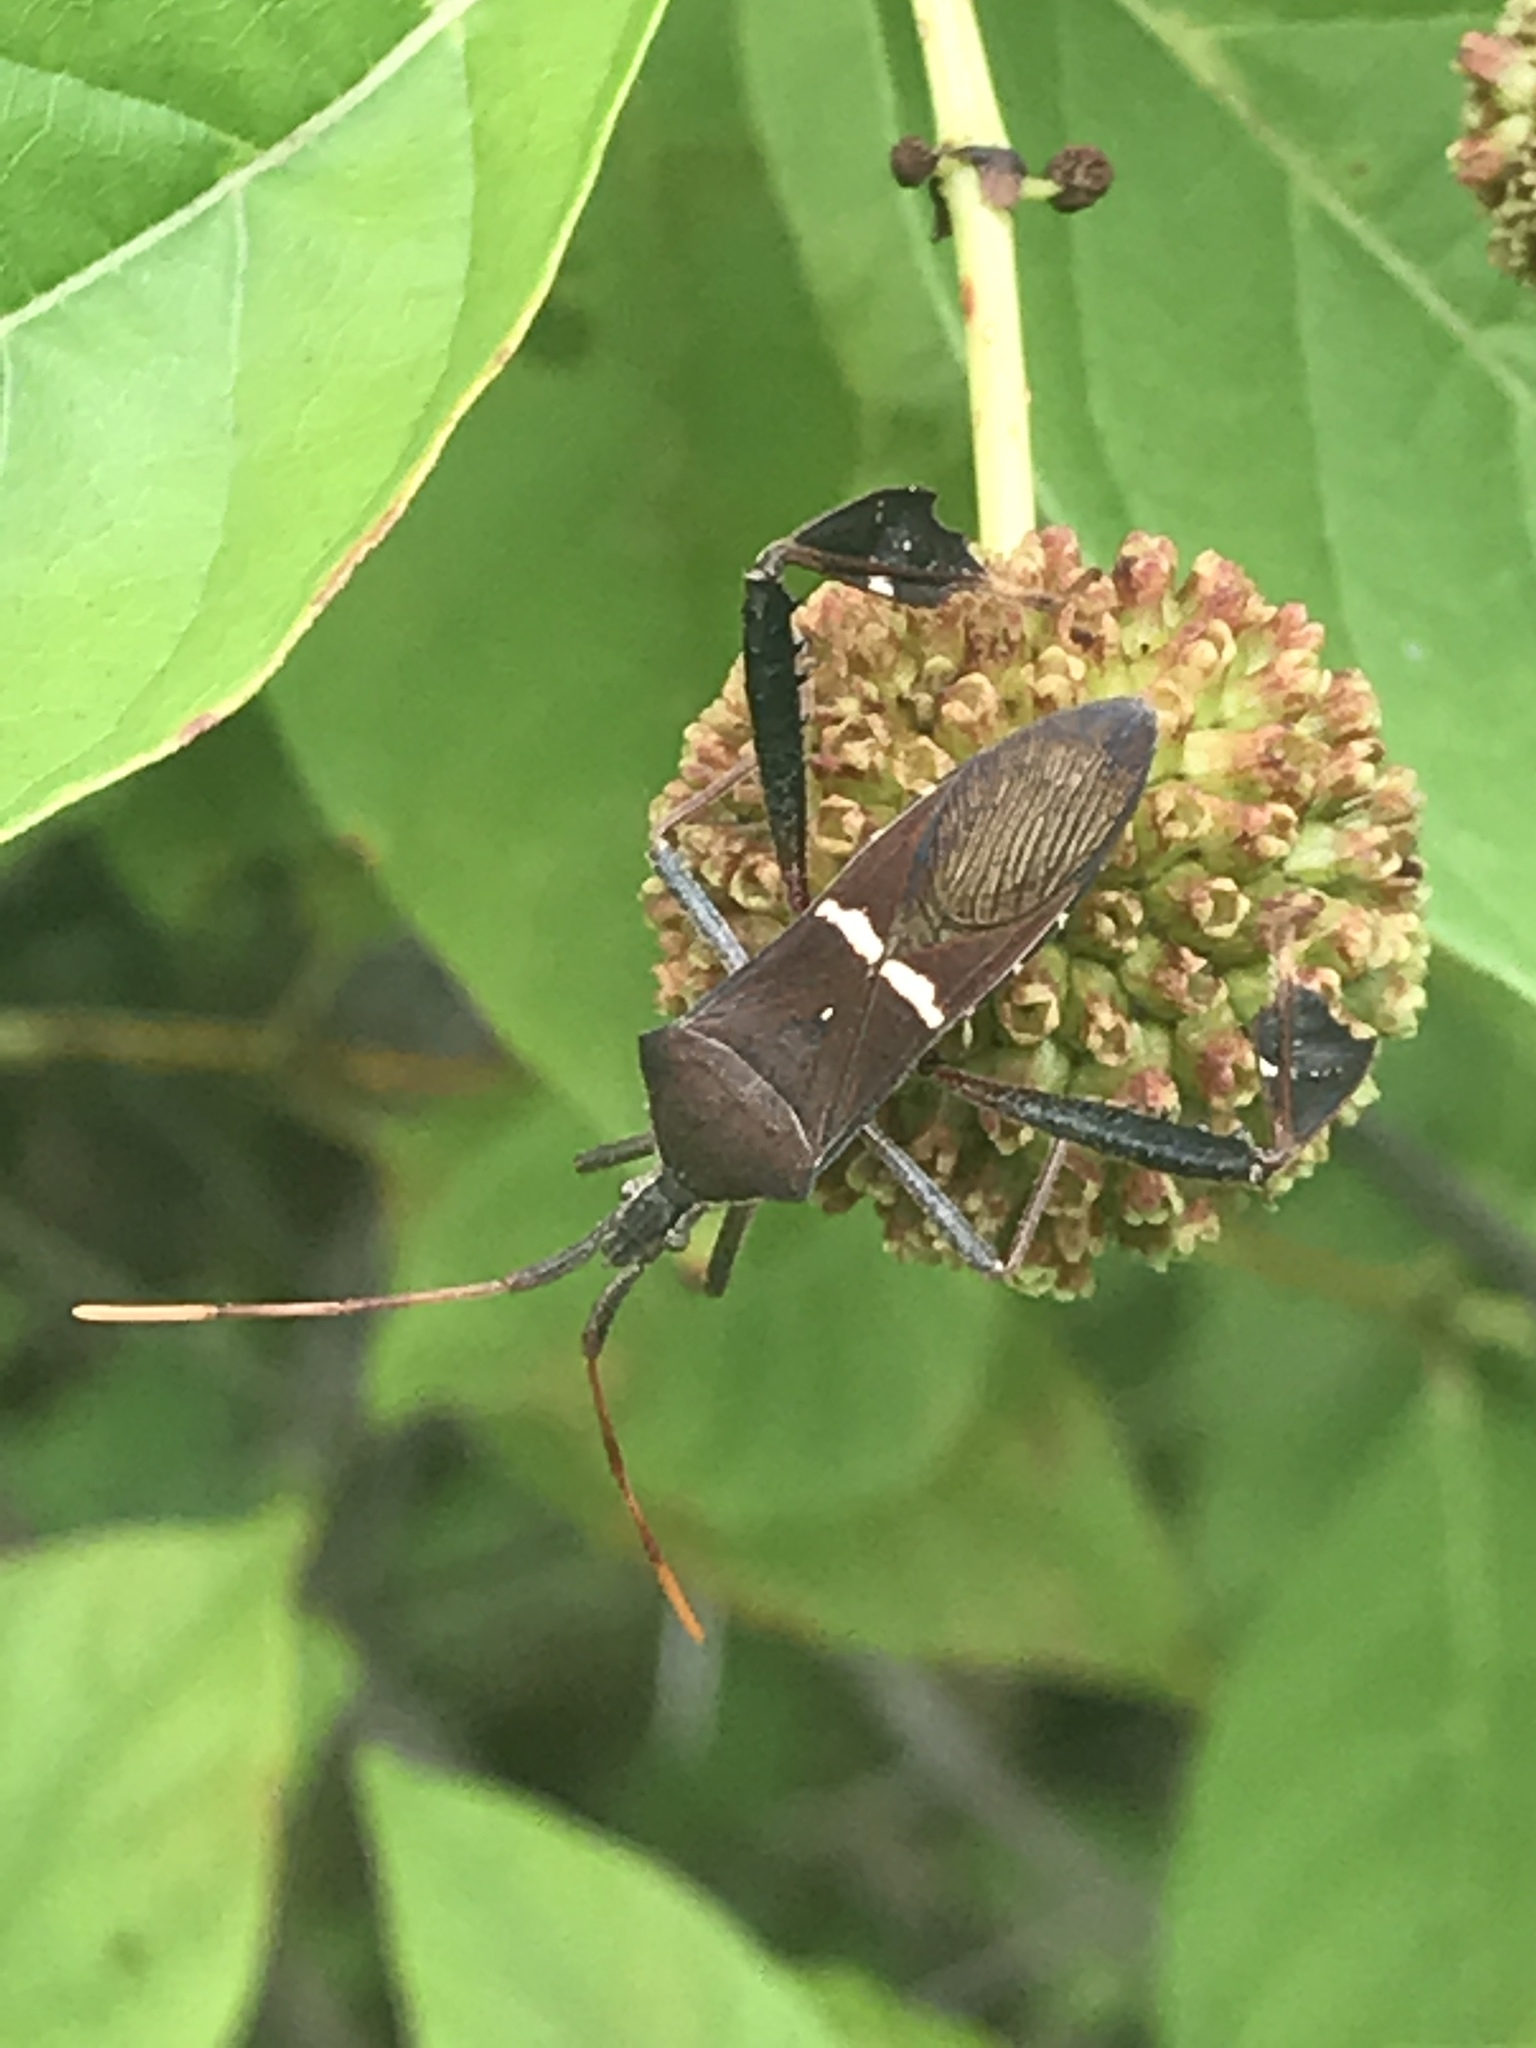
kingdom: Animalia
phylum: Arthropoda
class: Insecta
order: Hemiptera
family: Coreidae
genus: Leptoglossus
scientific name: Leptoglossus phyllopus
